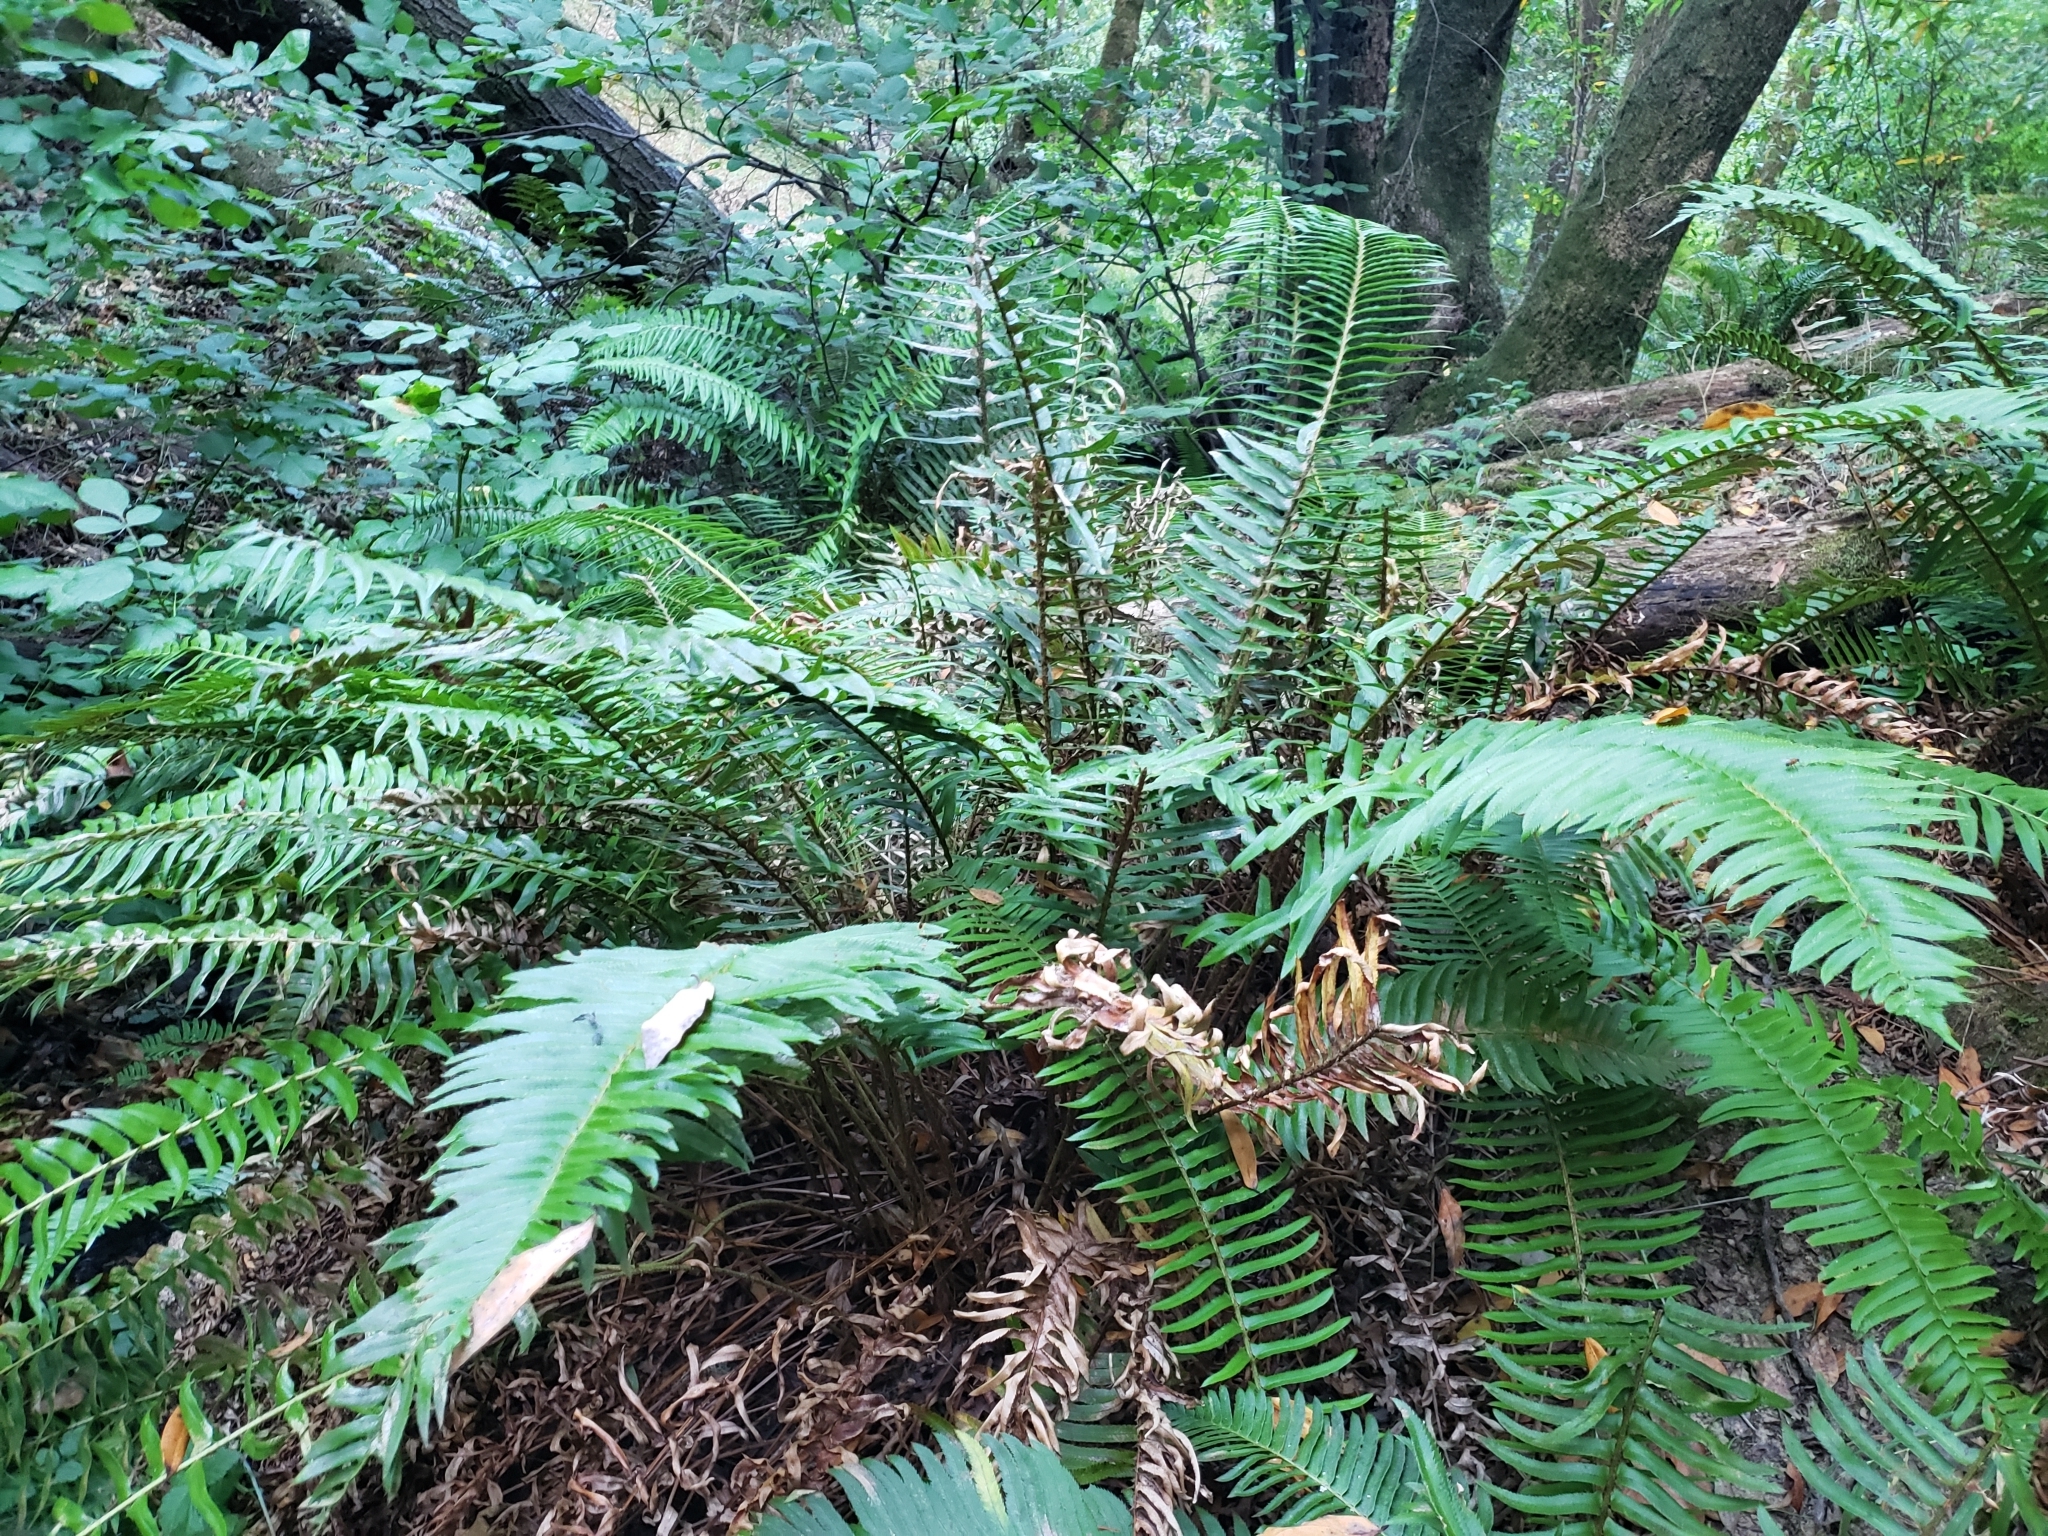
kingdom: Plantae
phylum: Tracheophyta
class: Polypodiopsida
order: Polypodiales
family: Dryopteridaceae
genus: Polystichum
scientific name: Polystichum munitum
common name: Western sword-fern
